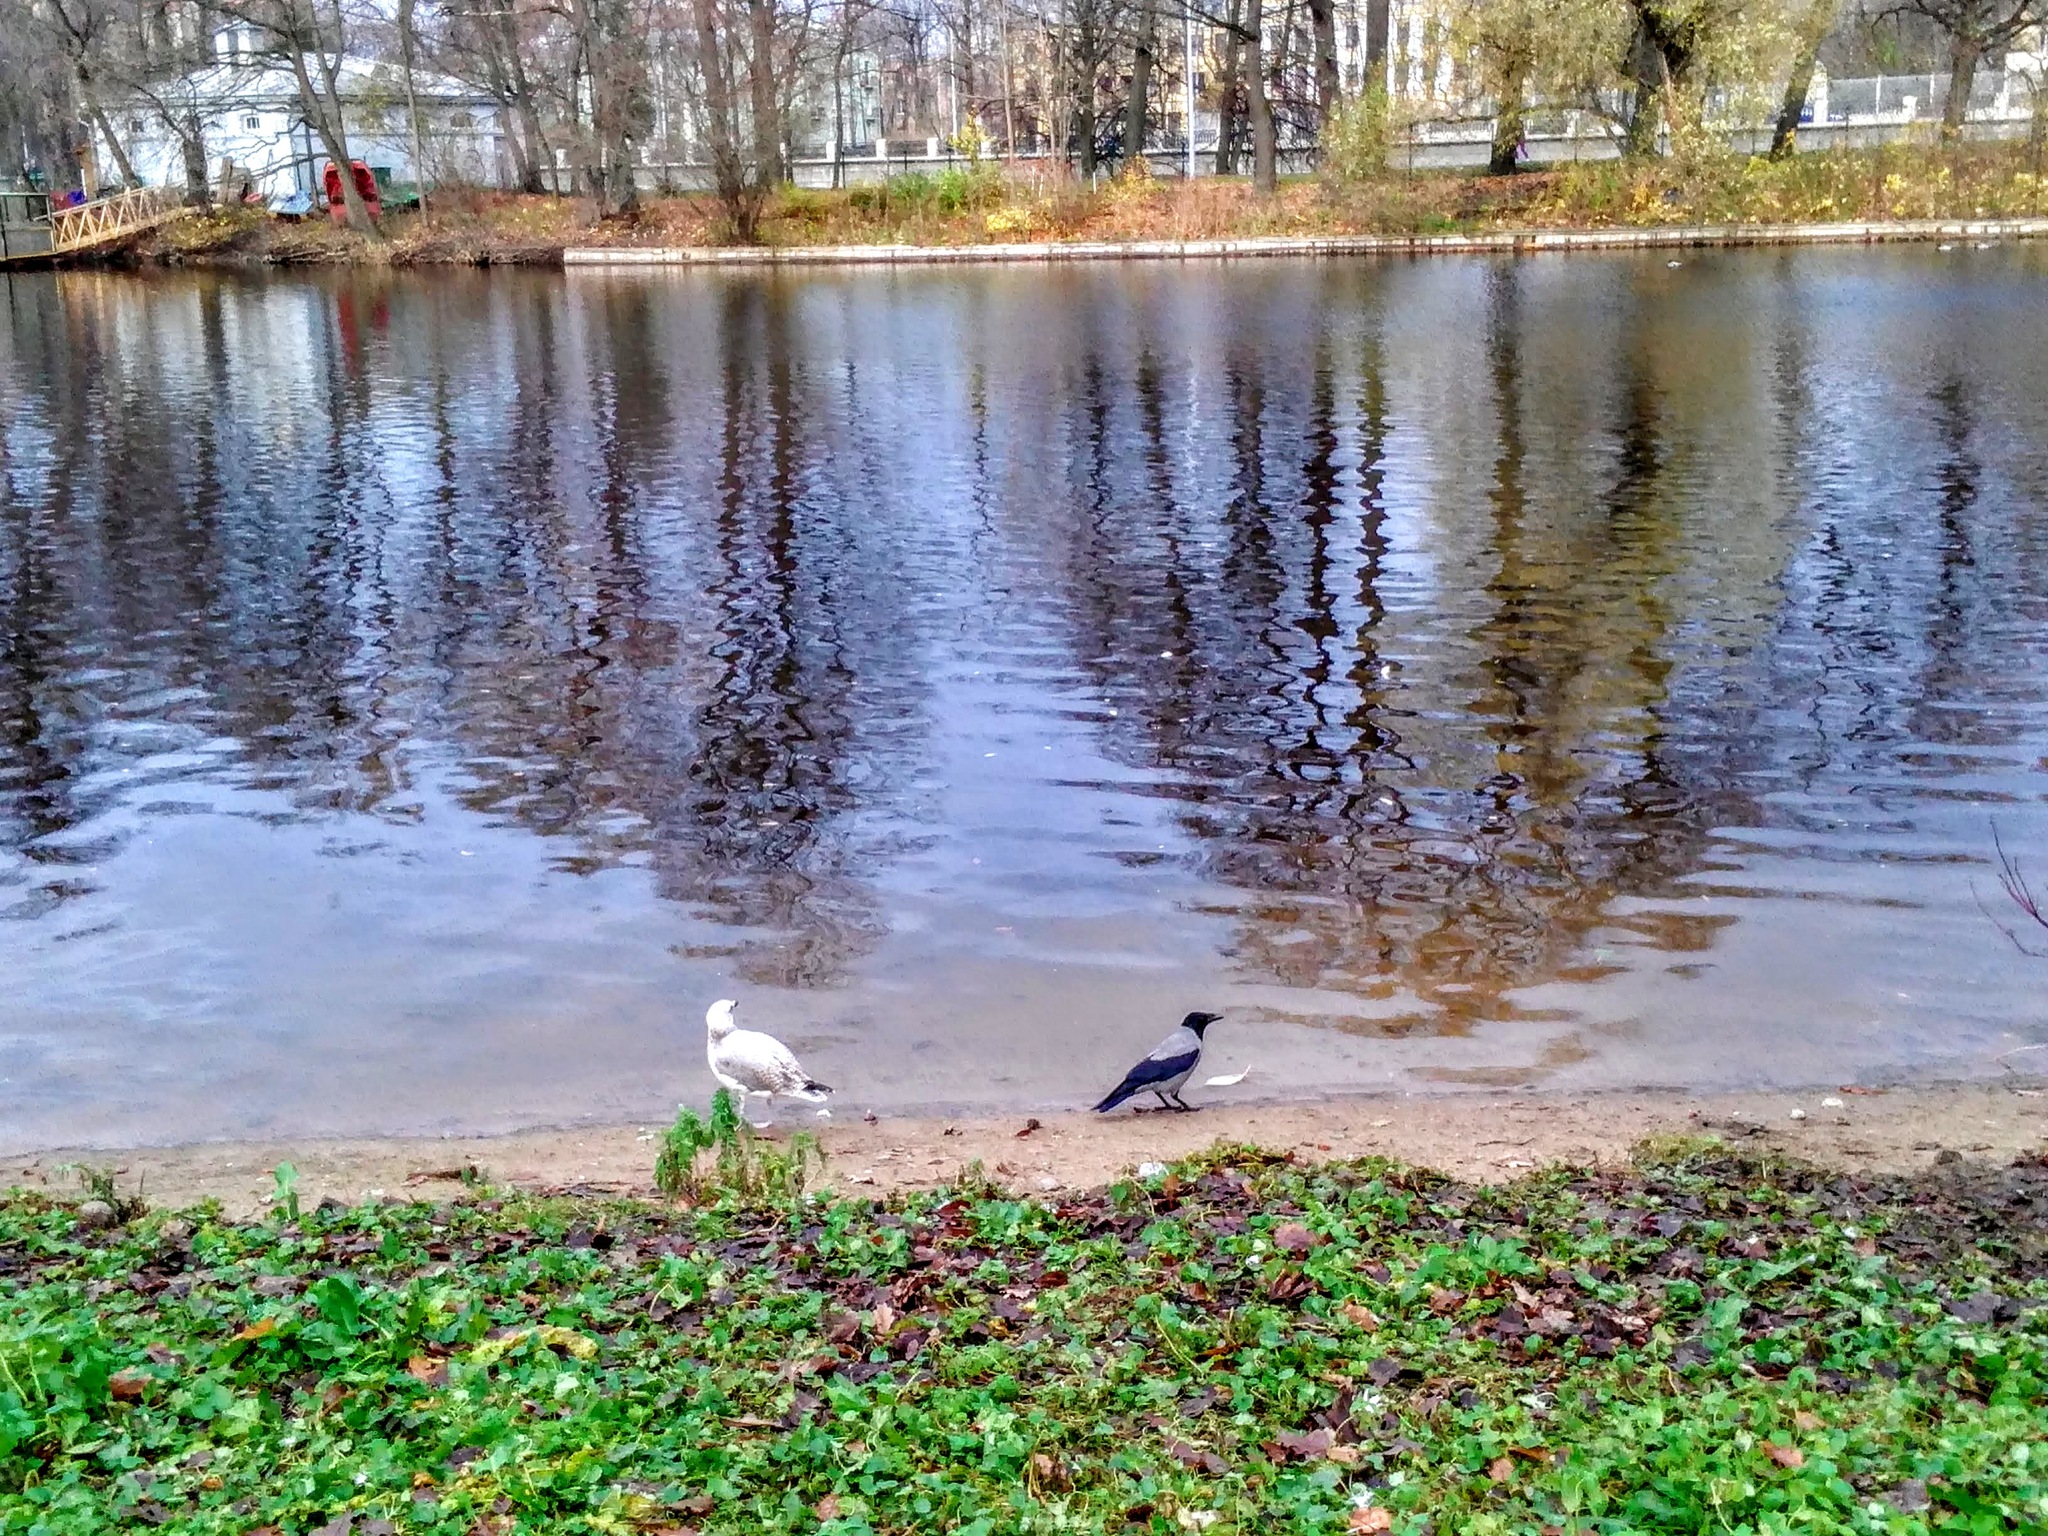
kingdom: Animalia
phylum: Chordata
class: Aves
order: Passeriformes
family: Corvidae
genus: Corvus
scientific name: Corvus cornix
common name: Hooded crow
